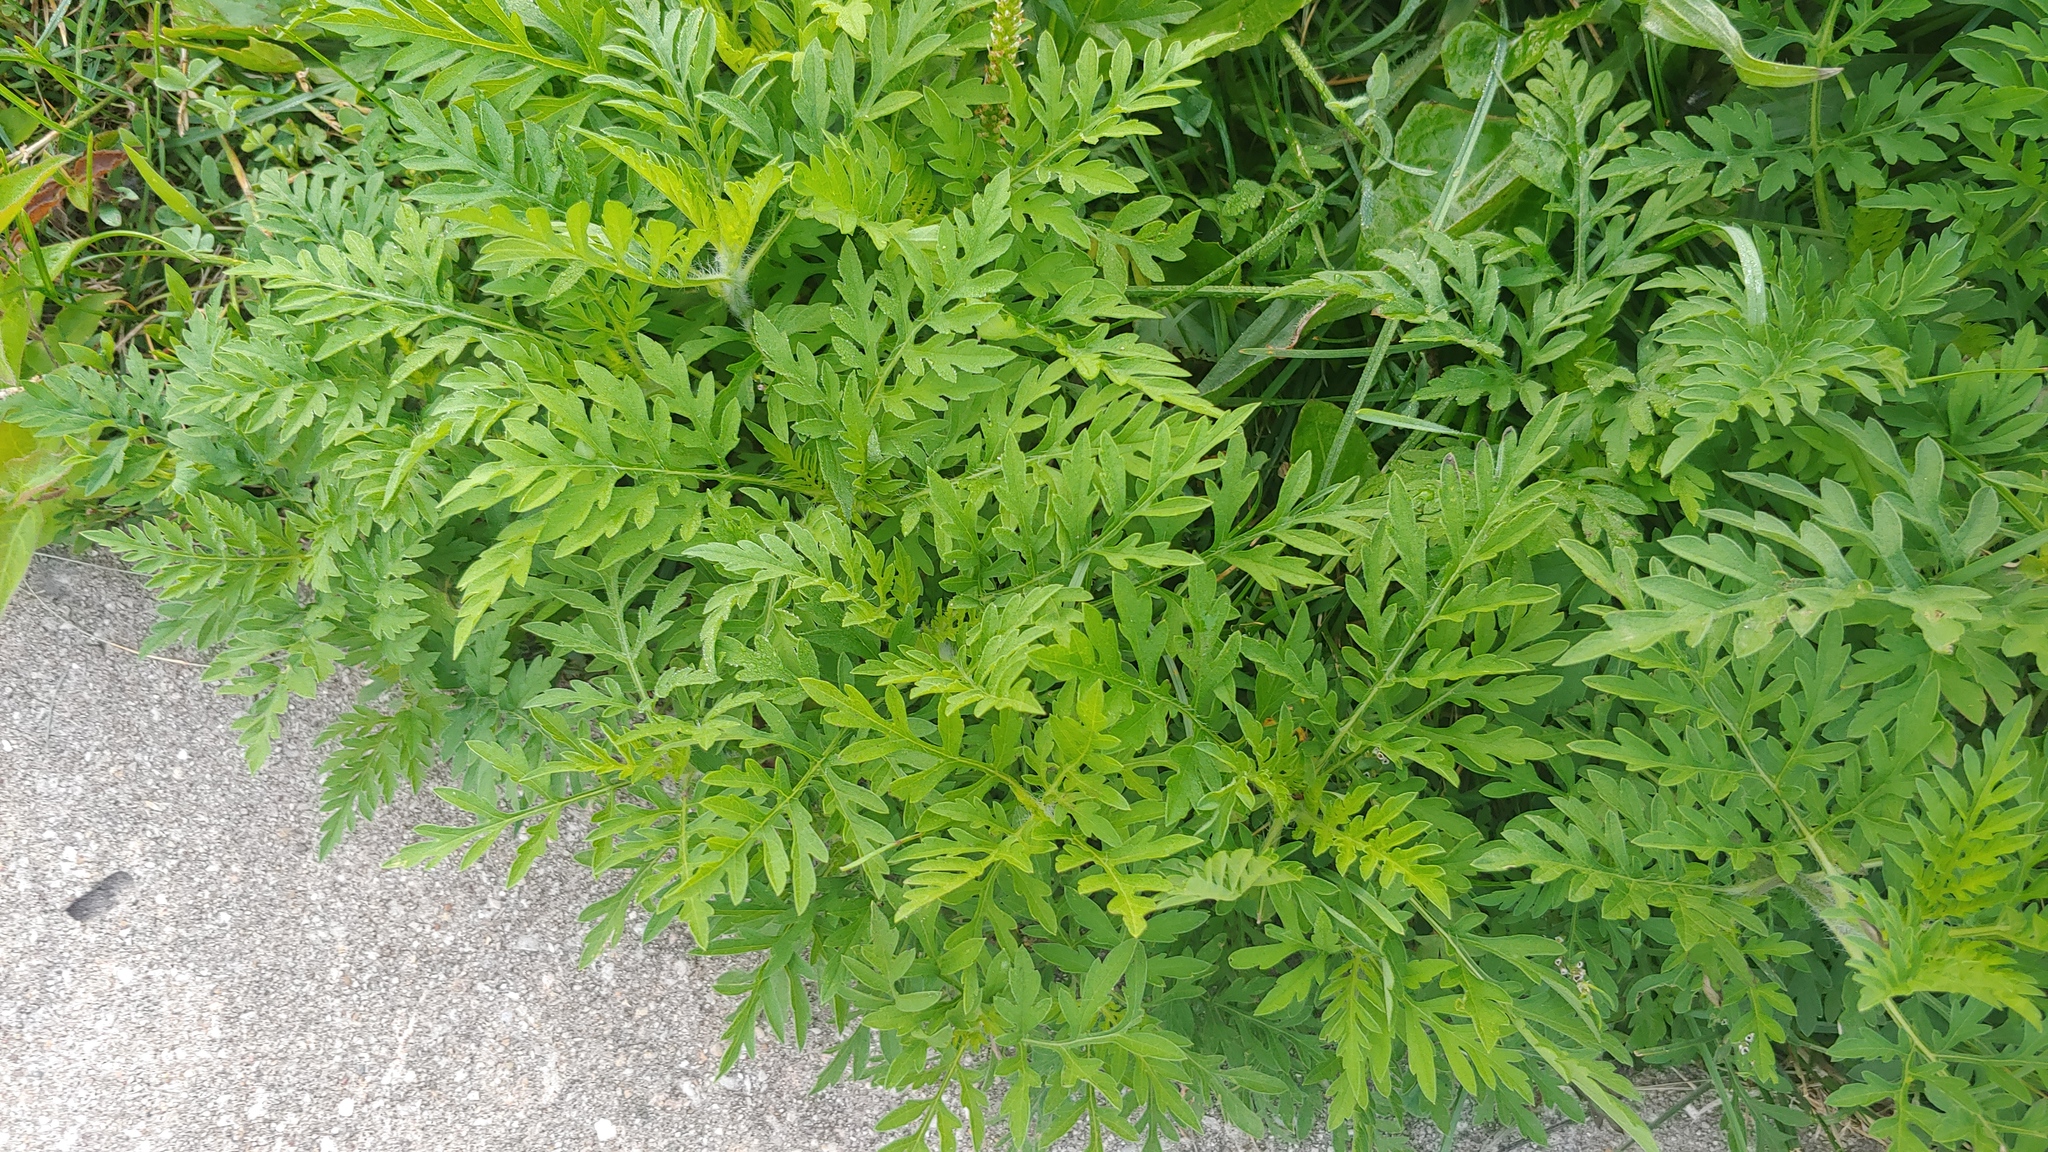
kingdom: Plantae
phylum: Tracheophyta
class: Magnoliopsida
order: Asterales
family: Asteraceae
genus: Ambrosia
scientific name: Ambrosia artemisiifolia
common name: Annual ragweed
